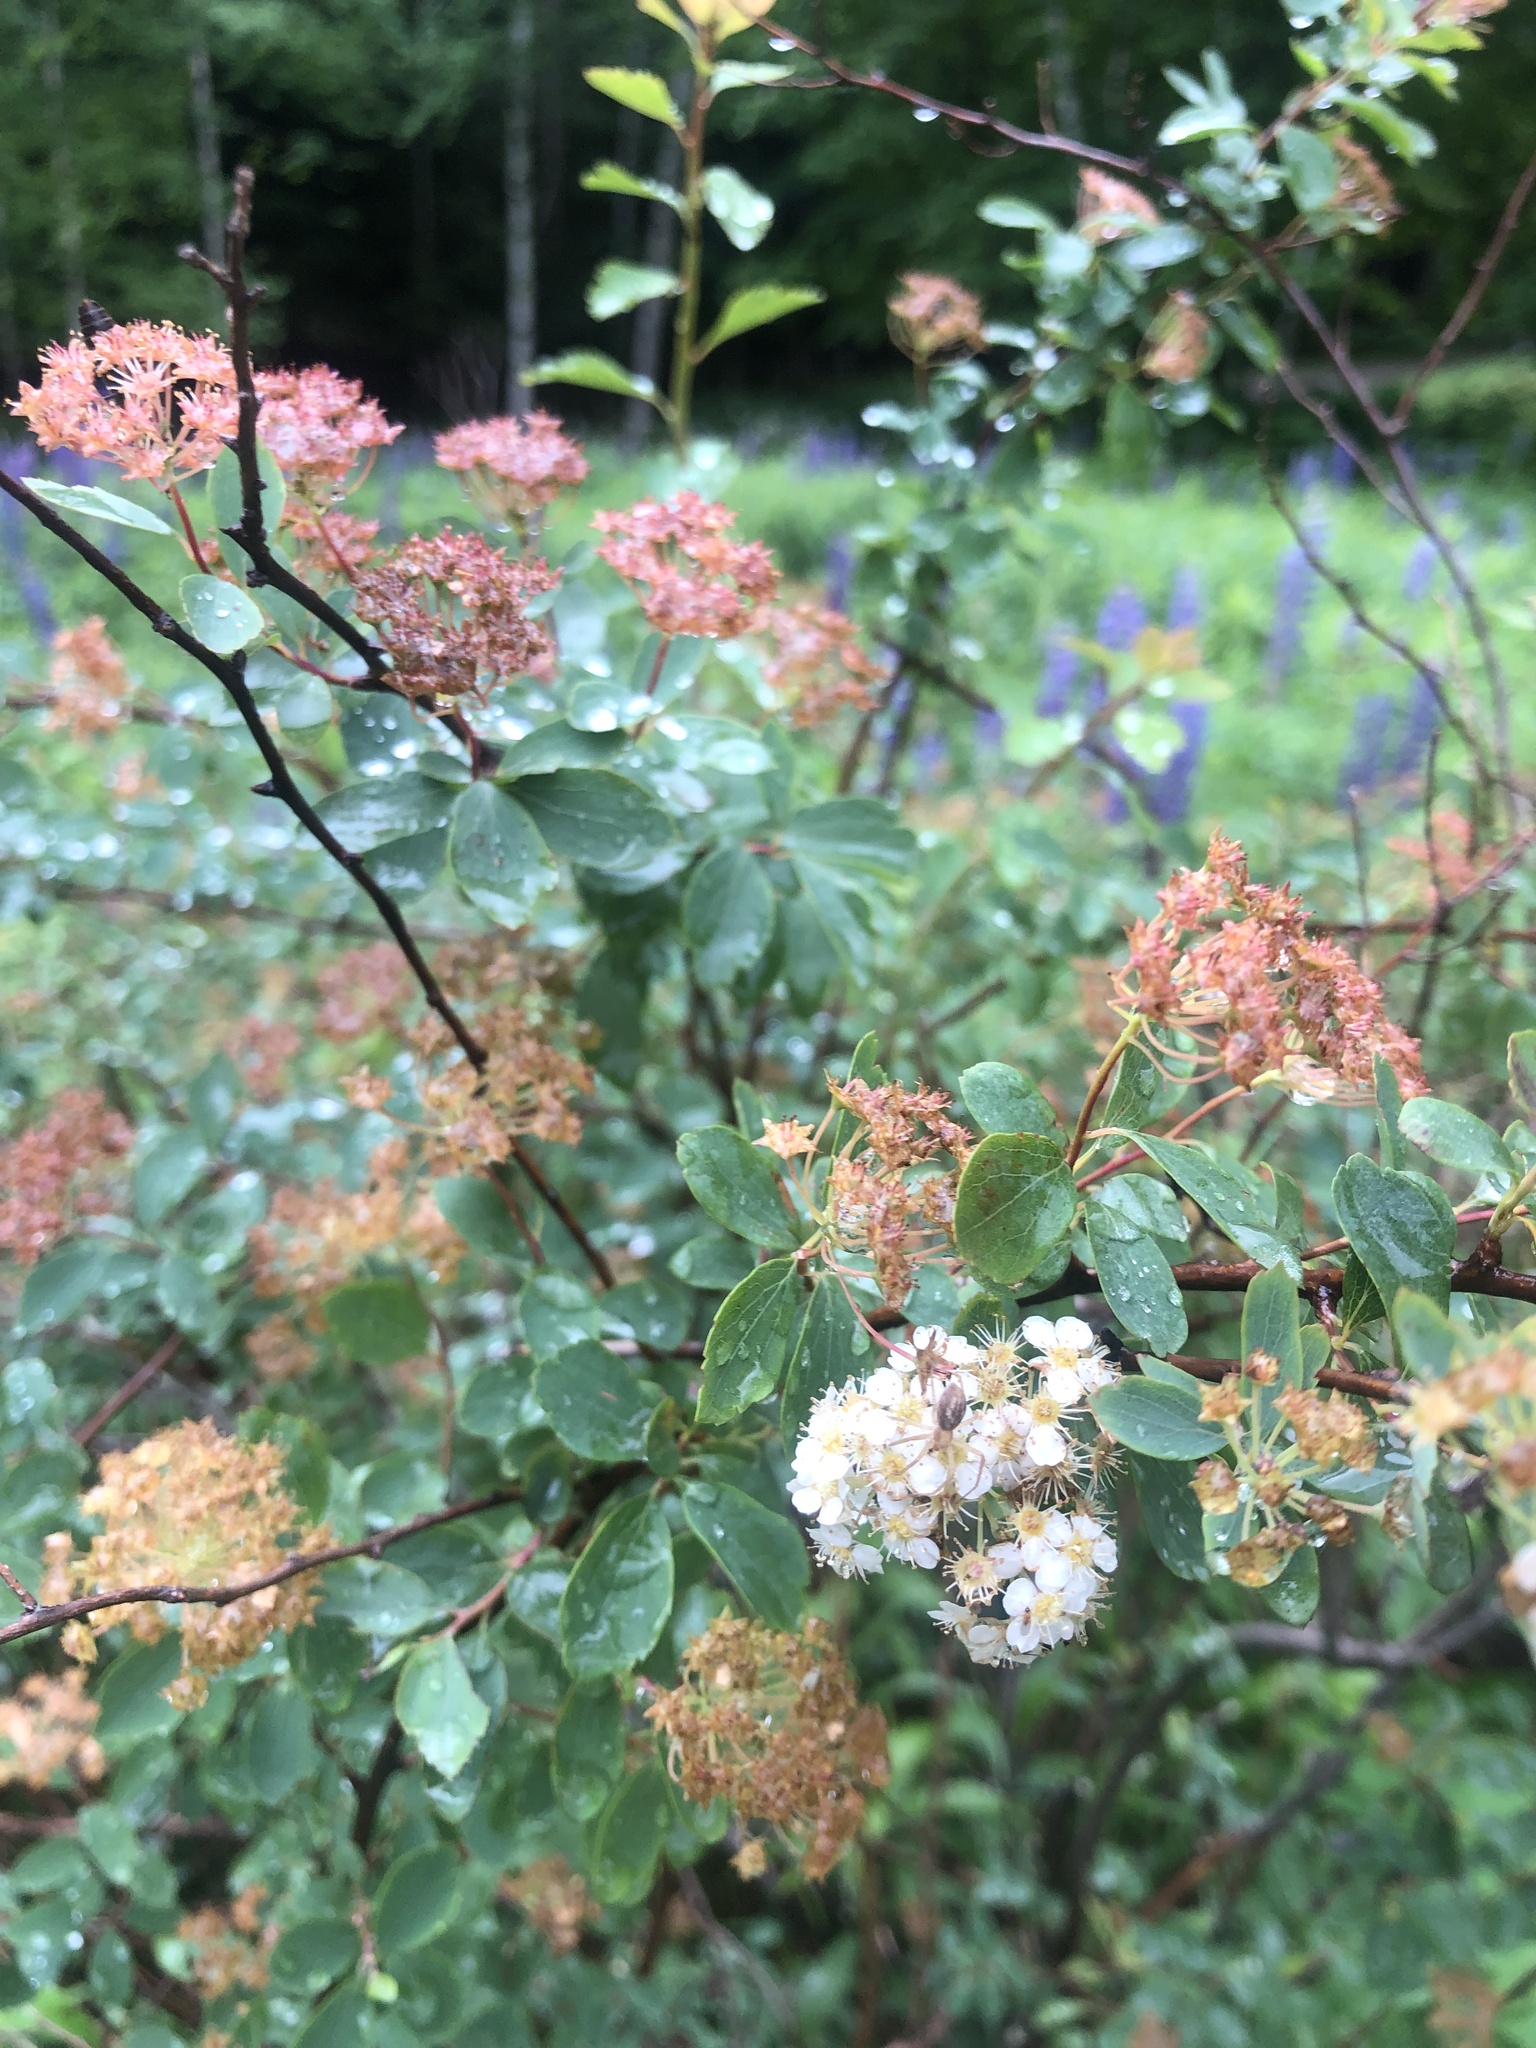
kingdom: Plantae
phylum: Tracheophyta
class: Magnoliopsida
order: Rosales
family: Rosaceae
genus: Spiraea
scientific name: Spiraea alba
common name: Pale bridewort
